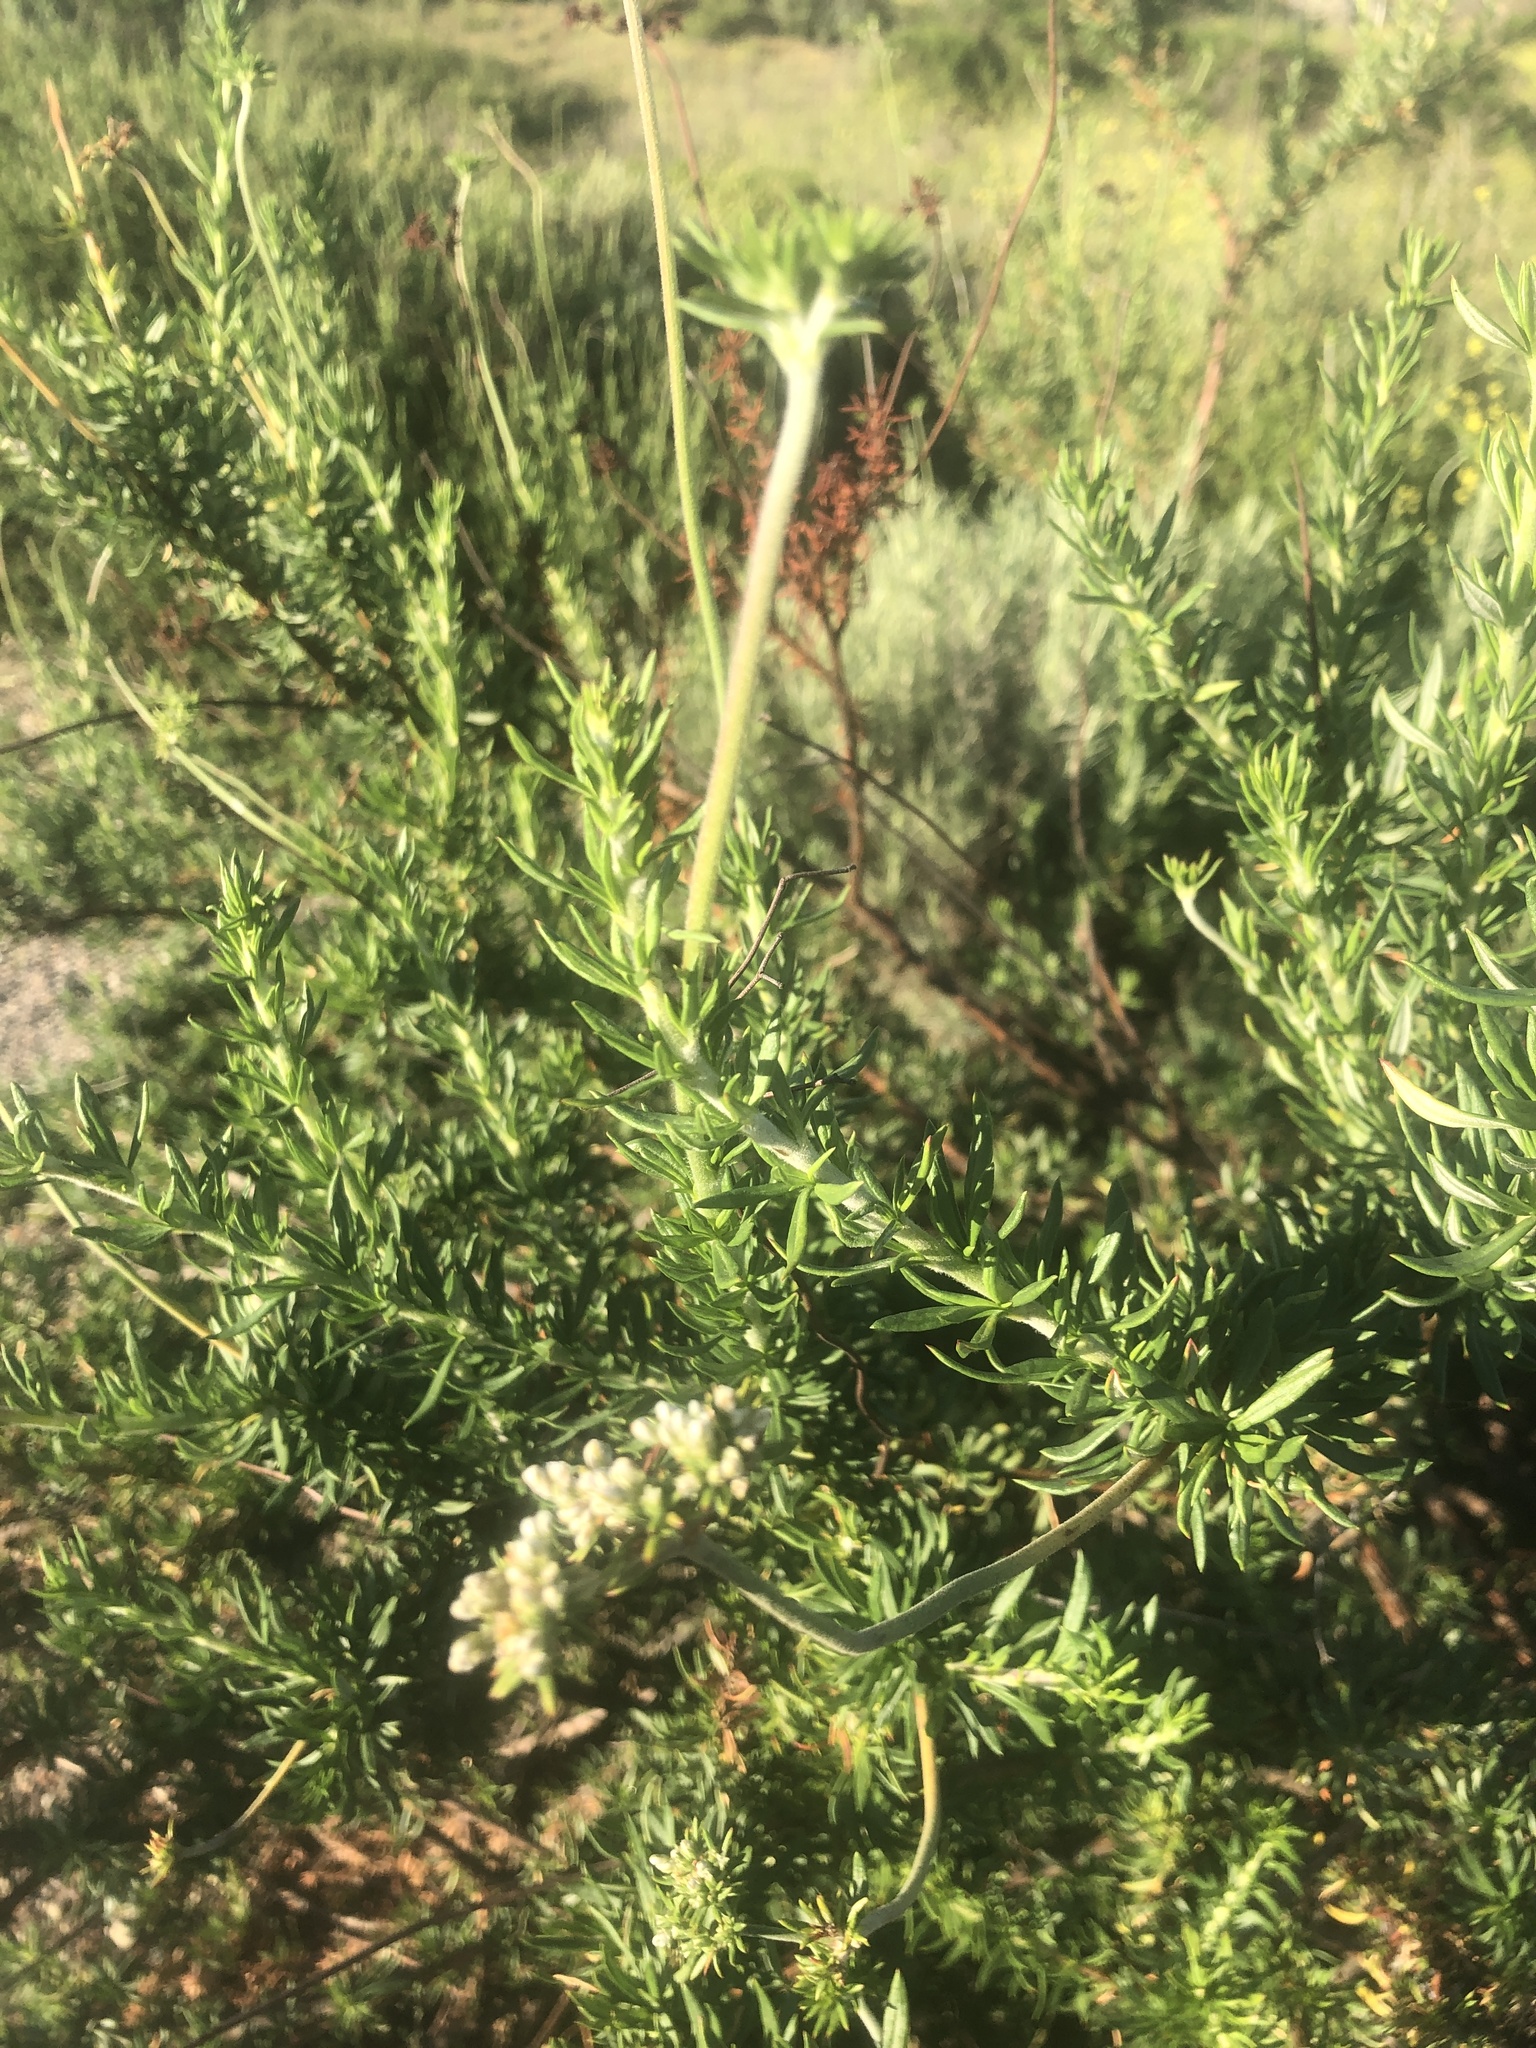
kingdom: Plantae
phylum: Tracheophyta
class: Magnoliopsida
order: Caryophyllales
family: Polygonaceae
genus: Eriogonum
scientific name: Eriogonum fasciculatum
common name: California wild buckwheat
